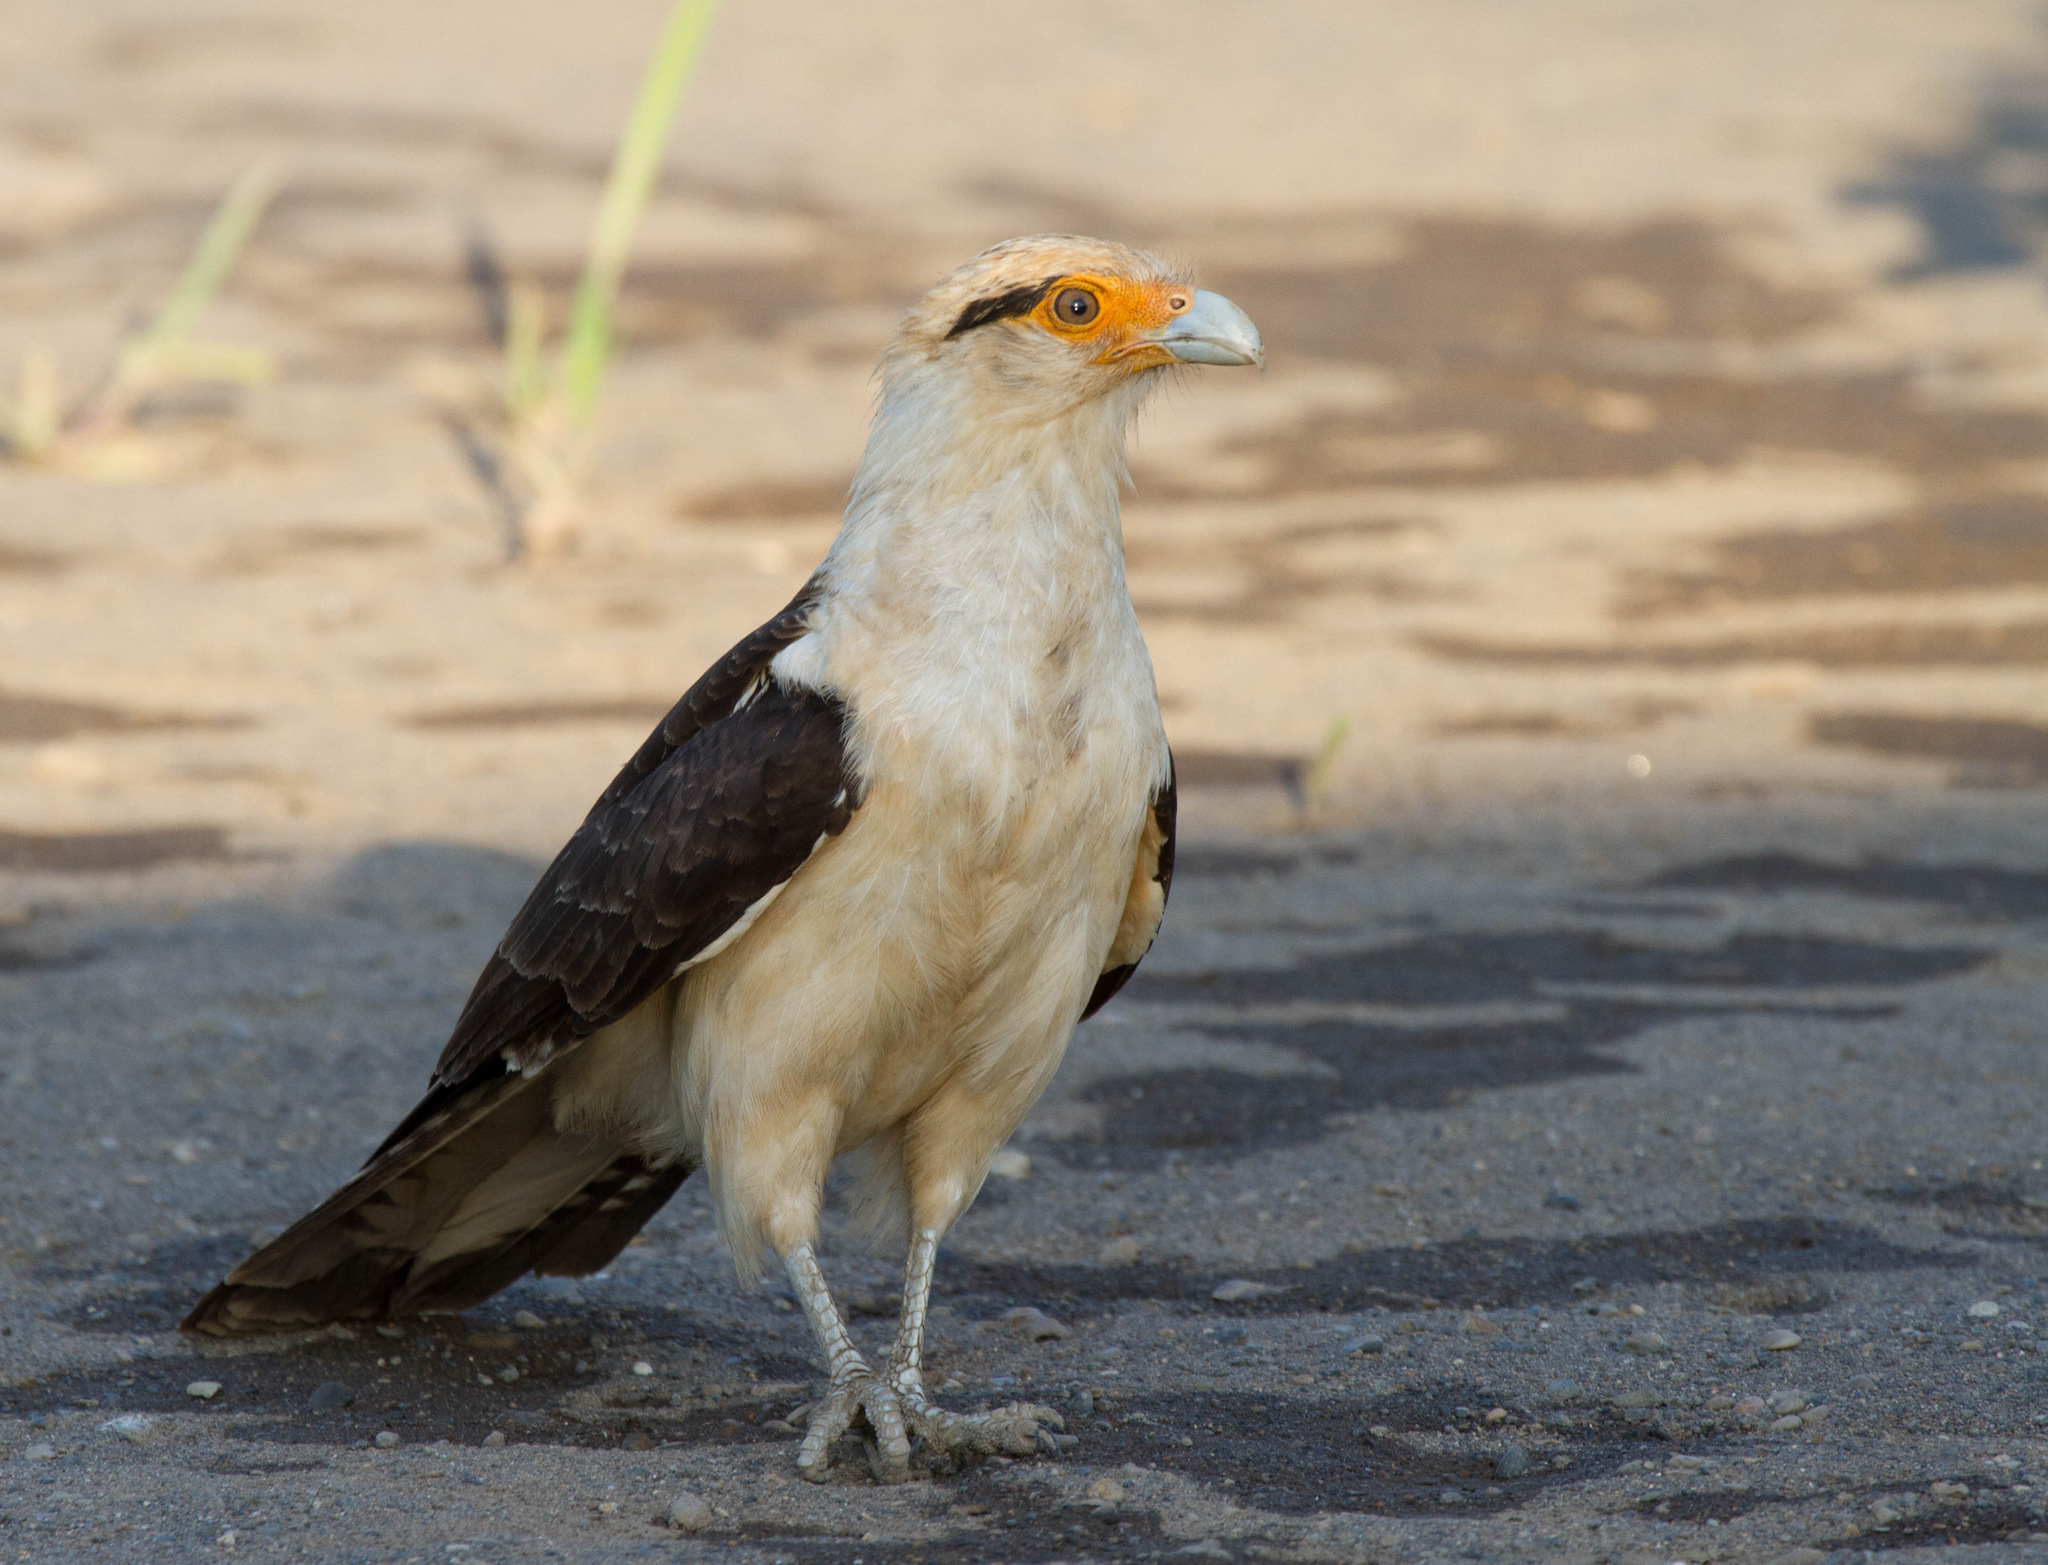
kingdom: Animalia
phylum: Chordata
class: Aves
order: Falconiformes
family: Falconidae
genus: Daptrius
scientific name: Daptrius
